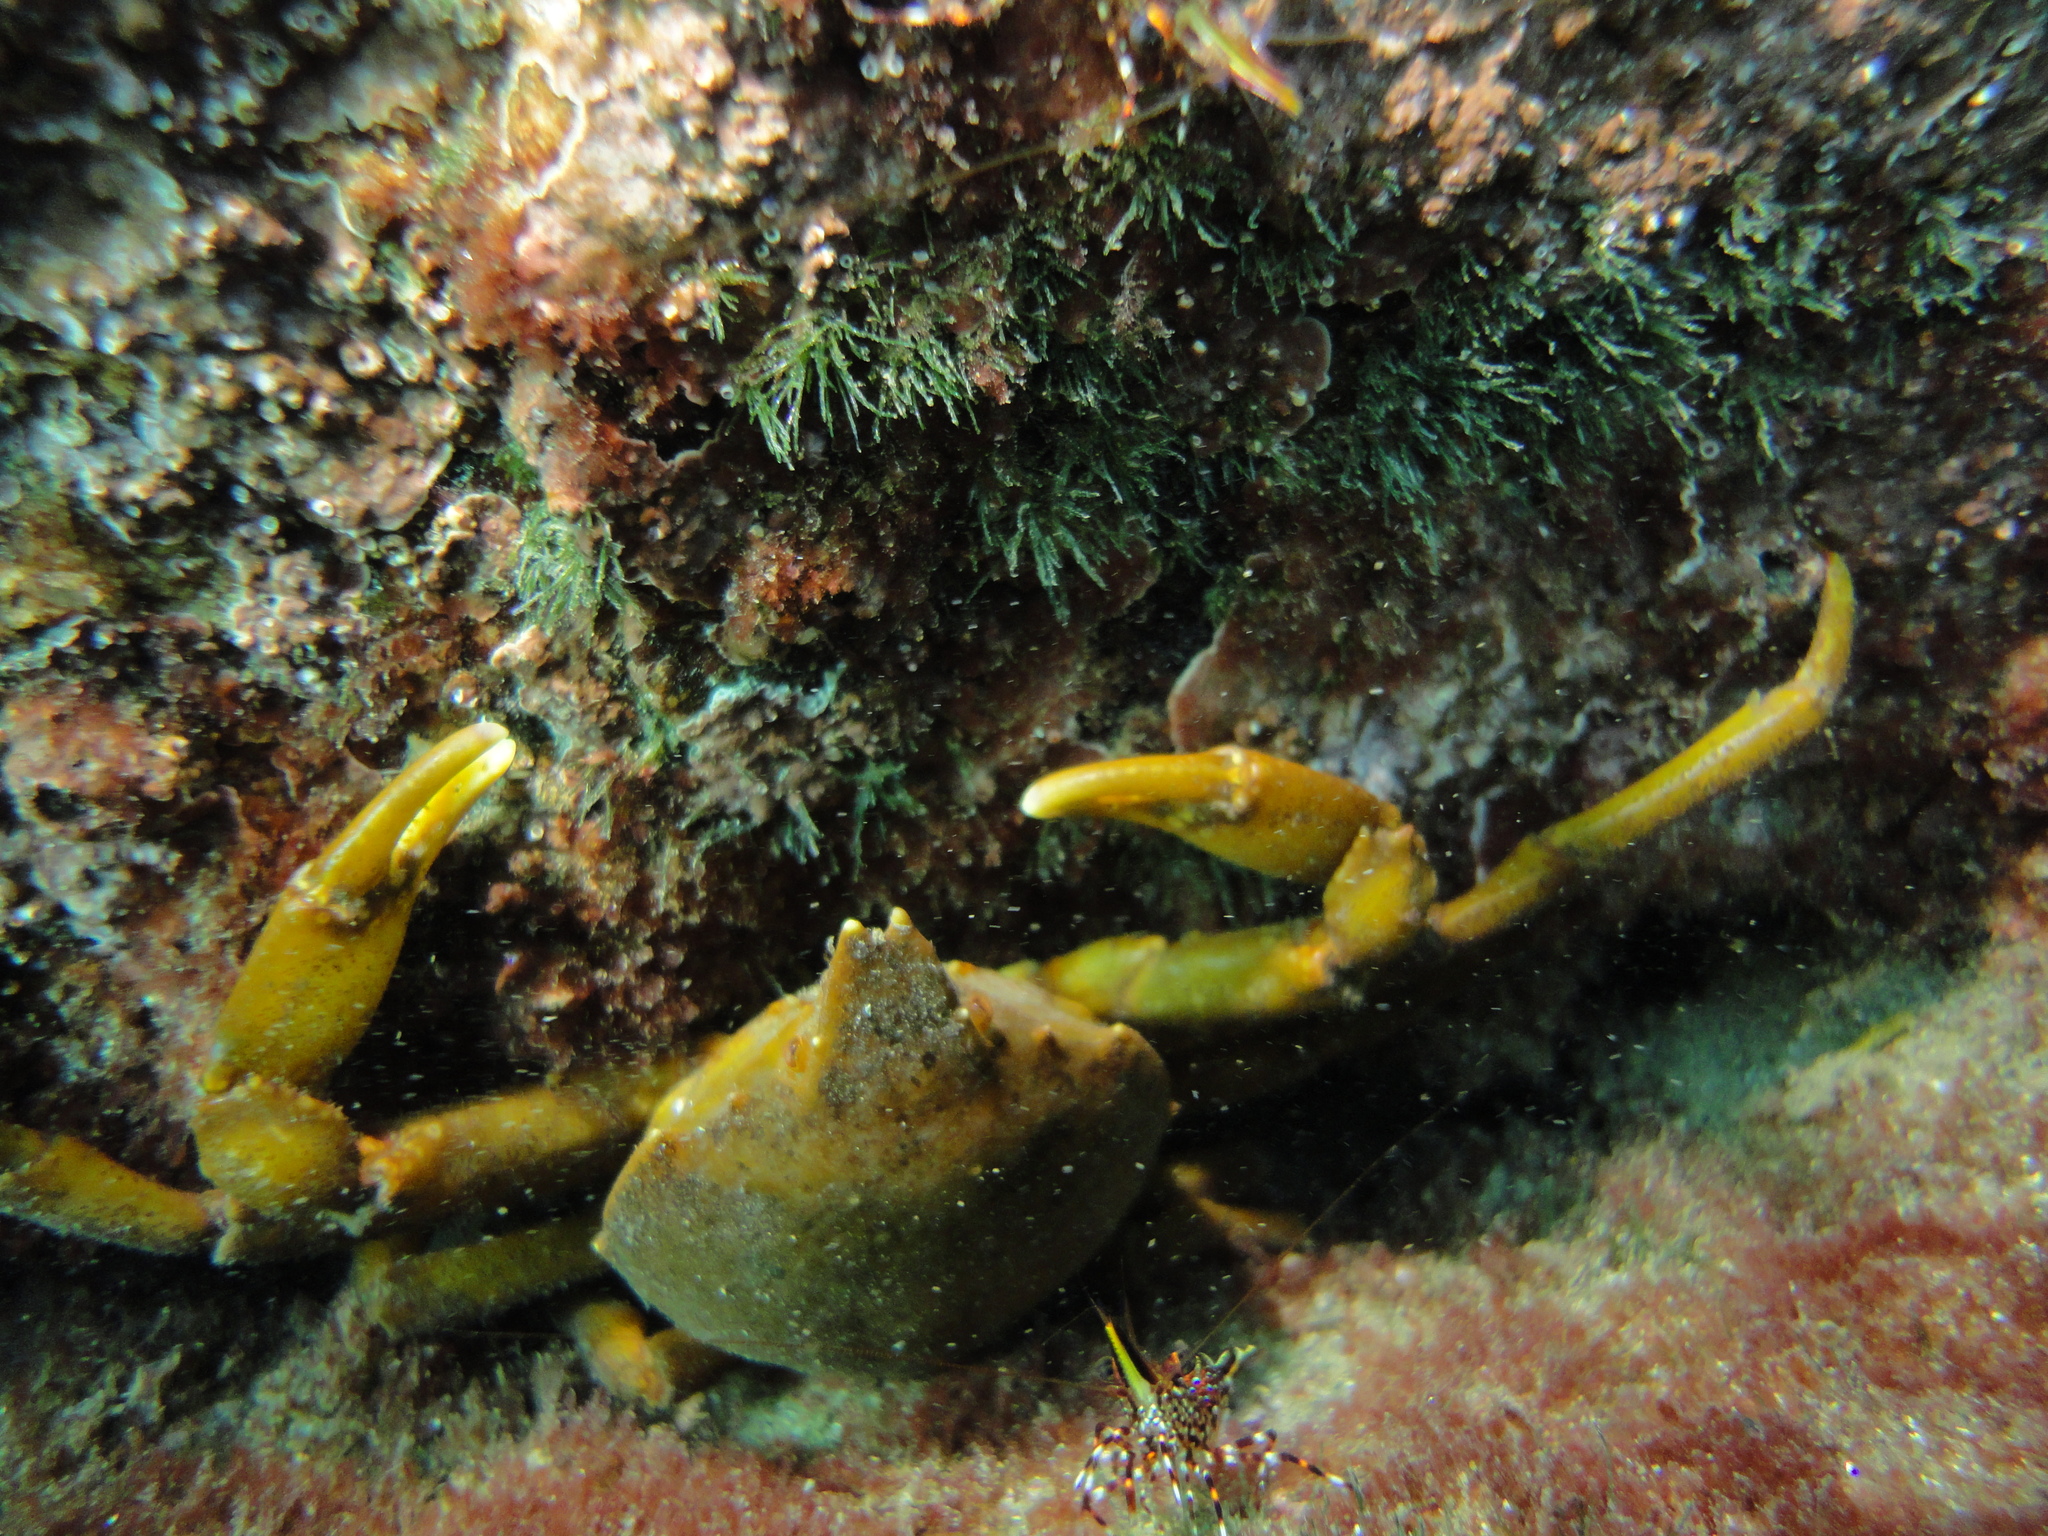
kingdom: Animalia
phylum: Arthropoda
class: Malacostraca
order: Decapoda
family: Epialtidae
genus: Taliepus
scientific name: Taliepus dentatus
